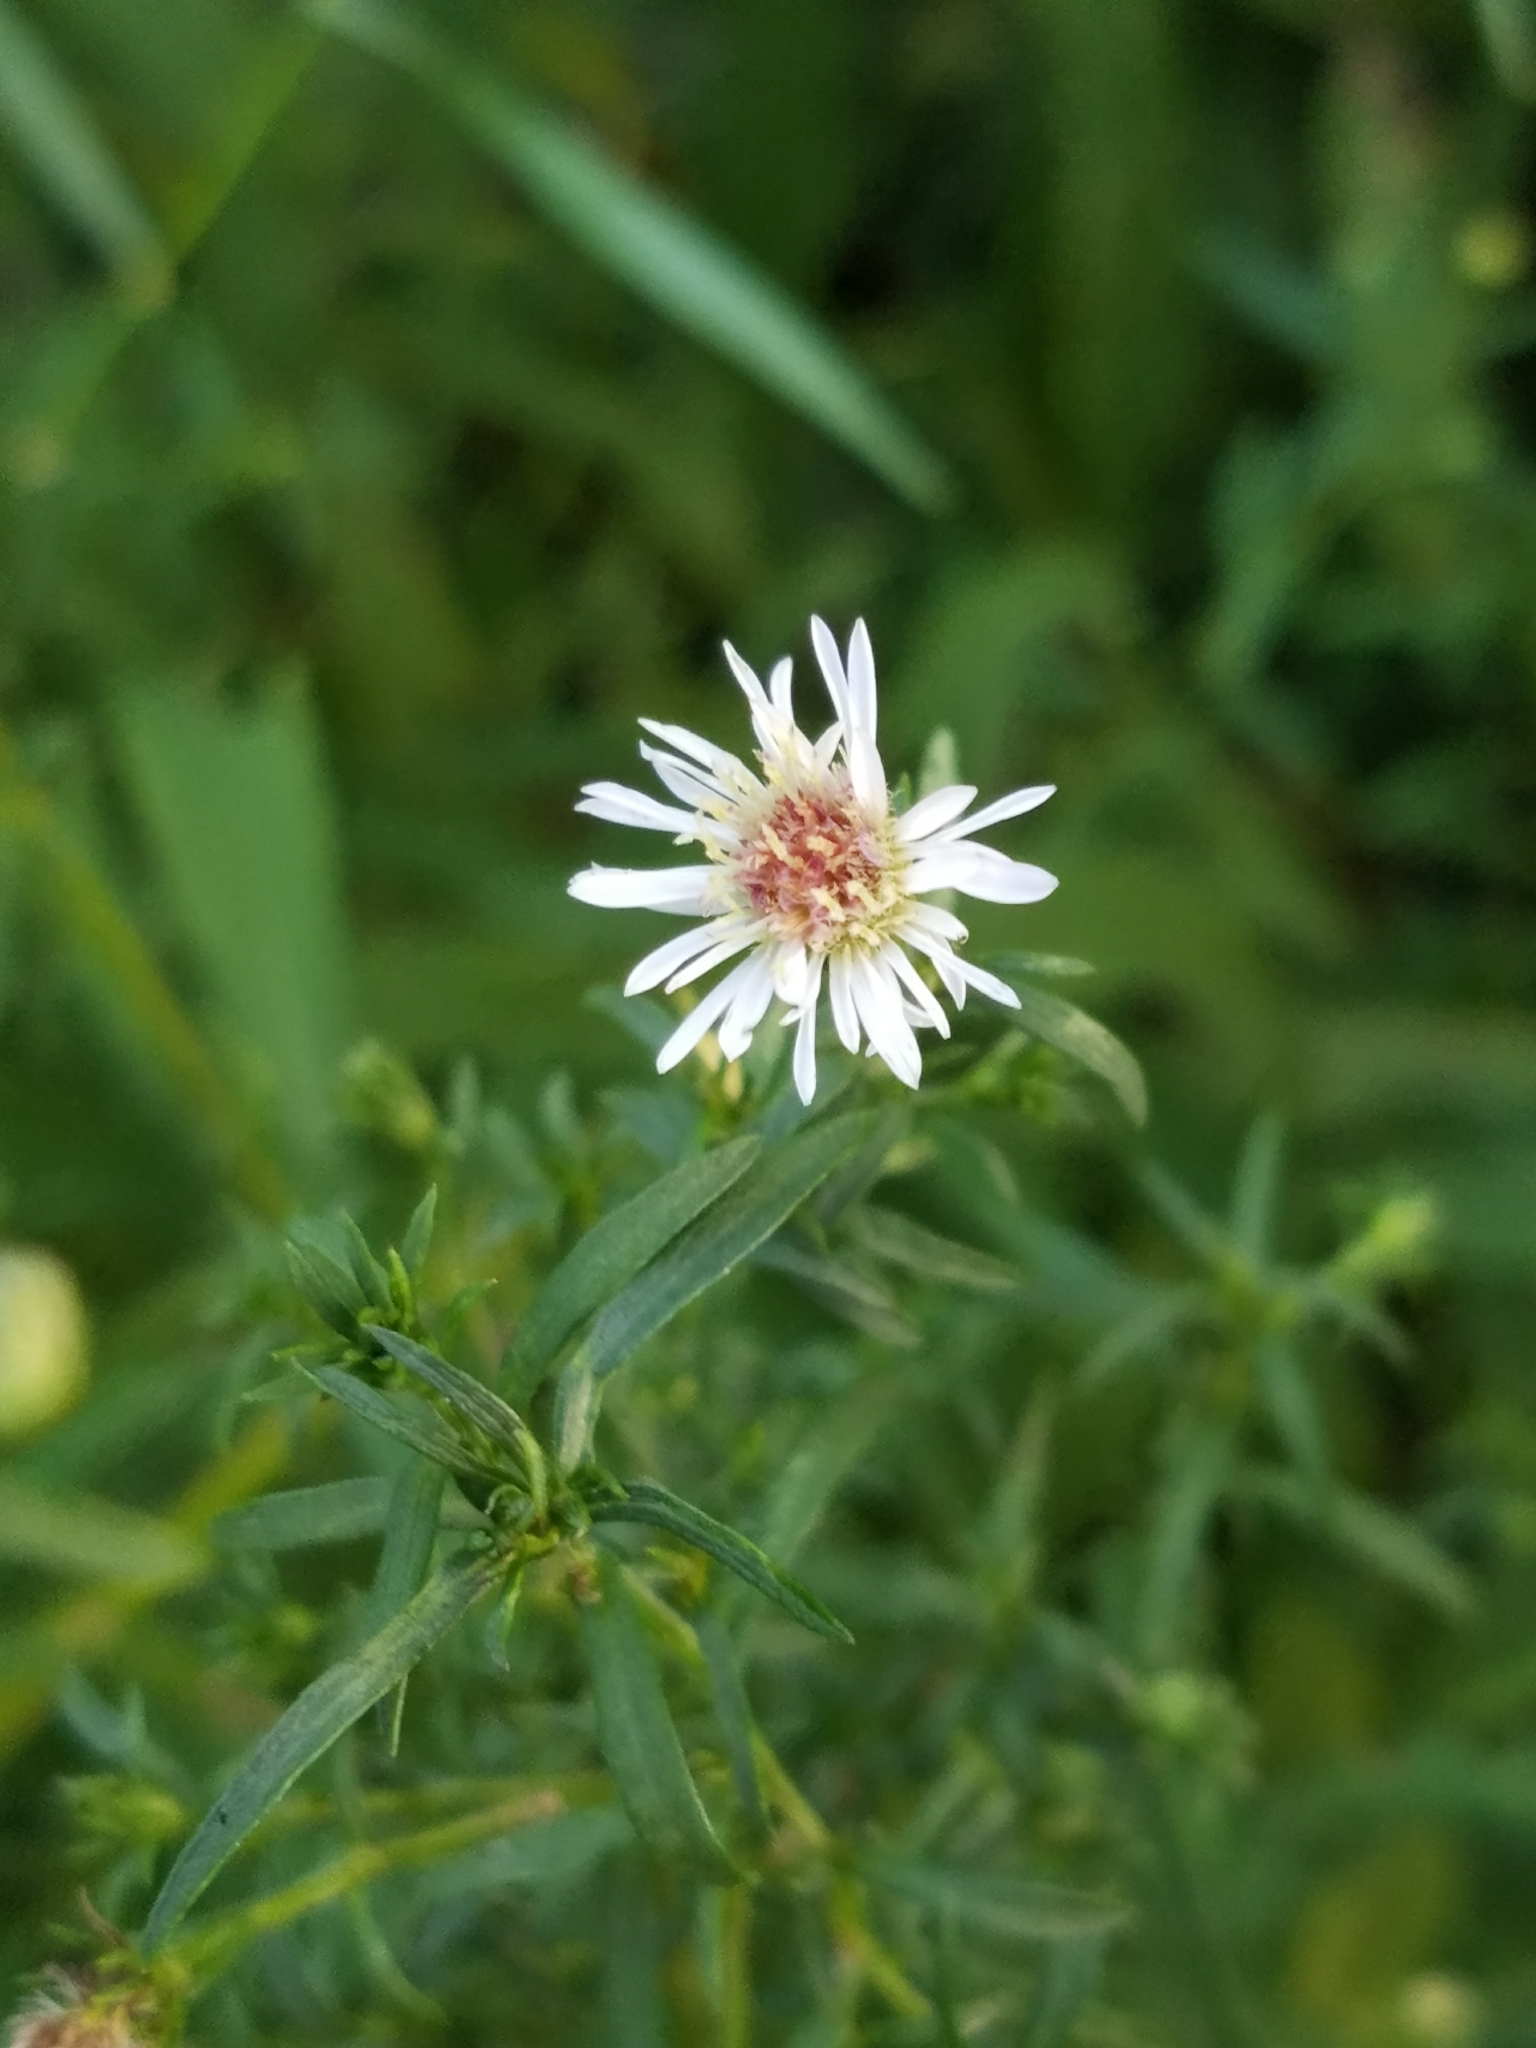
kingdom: Plantae
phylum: Tracheophyta
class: Magnoliopsida
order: Asterales
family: Asteraceae
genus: Symphyotrichum
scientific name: Symphyotrichum racemosum
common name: Small white aster
